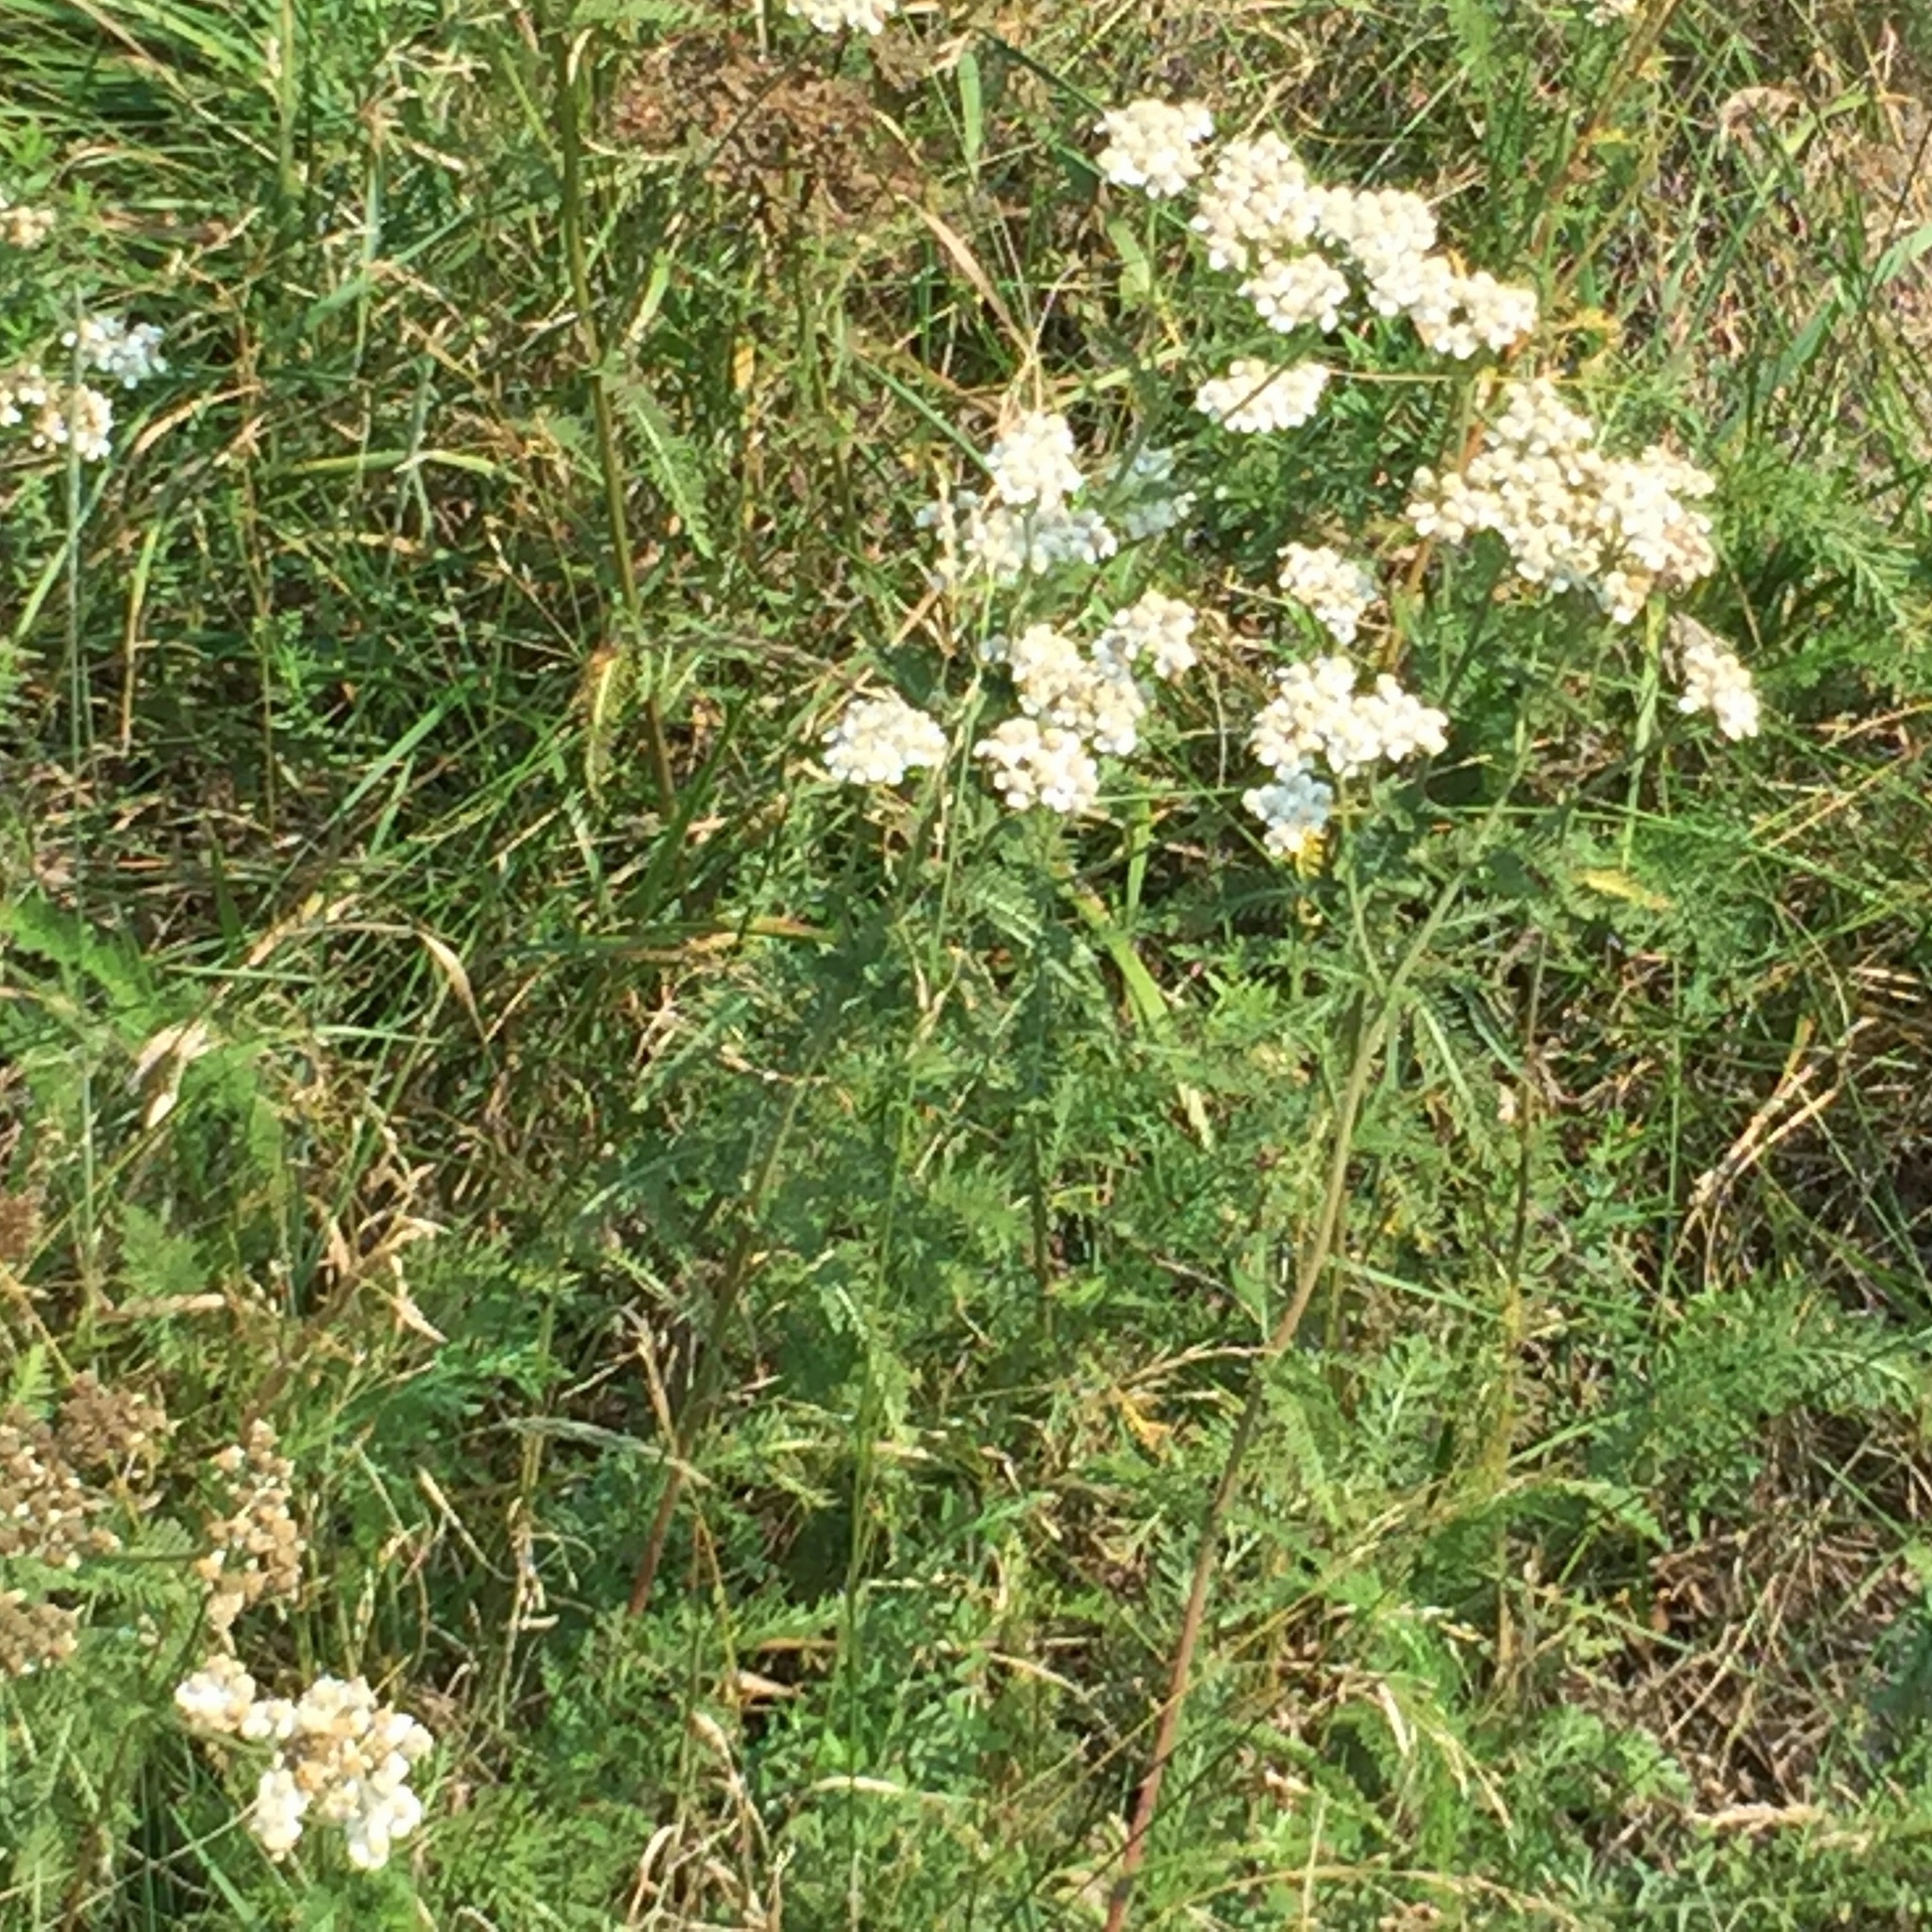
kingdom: Plantae
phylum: Tracheophyta
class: Magnoliopsida
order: Asterales
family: Asteraceae
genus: Achillea
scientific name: Achillea millefolium
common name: Yarrow
